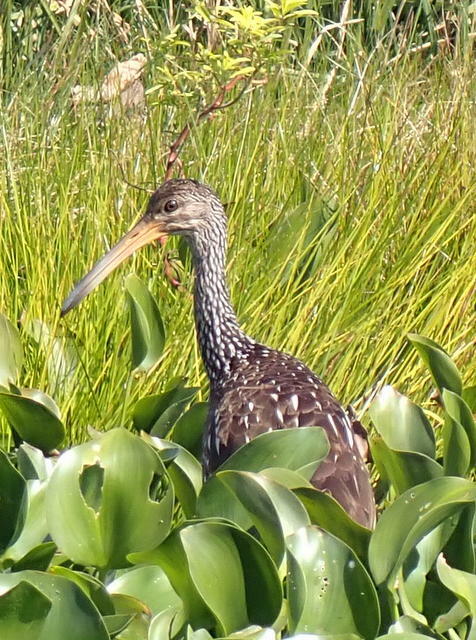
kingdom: Animalia
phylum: Chordata
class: Aves
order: Gruiformes
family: Aramidae
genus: Aramus
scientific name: Aramus guarauna
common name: Limpkin
